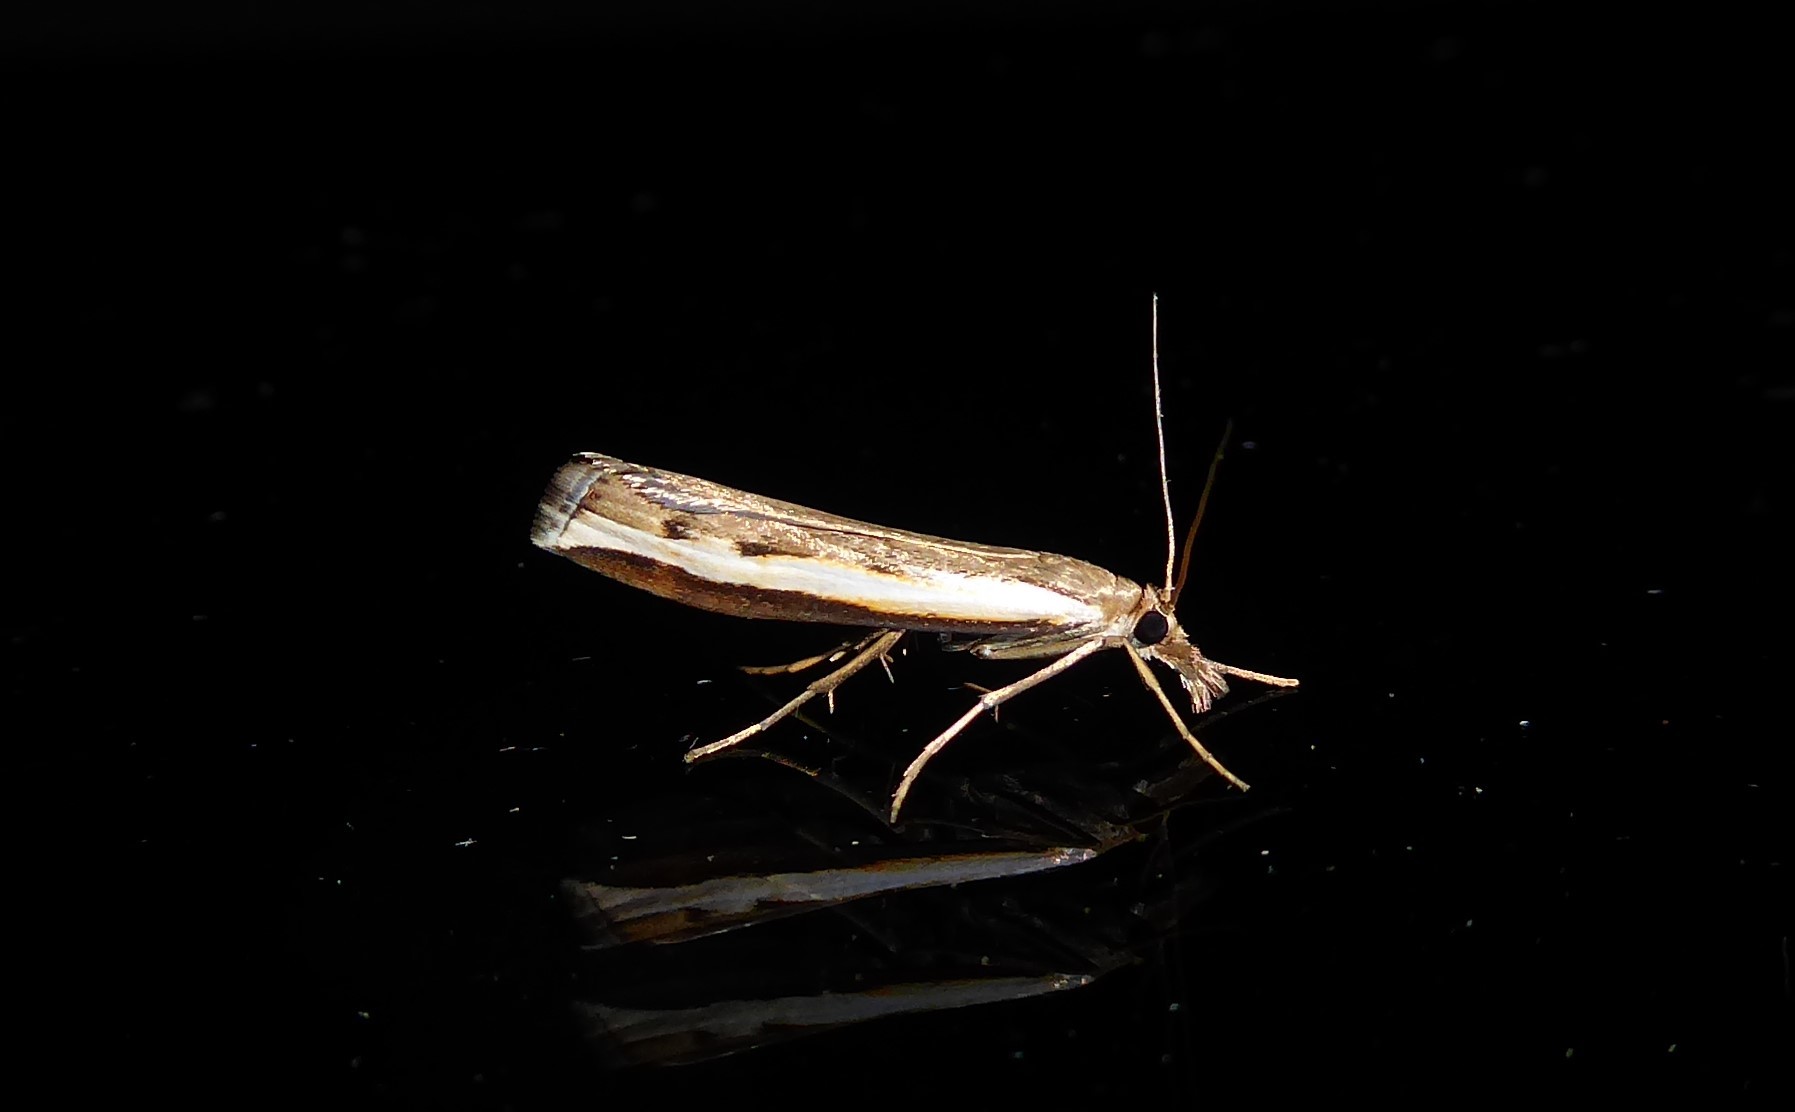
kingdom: Animalia
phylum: Arthropoda
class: Insecta
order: Lepidoptera
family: Crambidae
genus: Orocrambus
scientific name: Orocrambus flexuosellus
